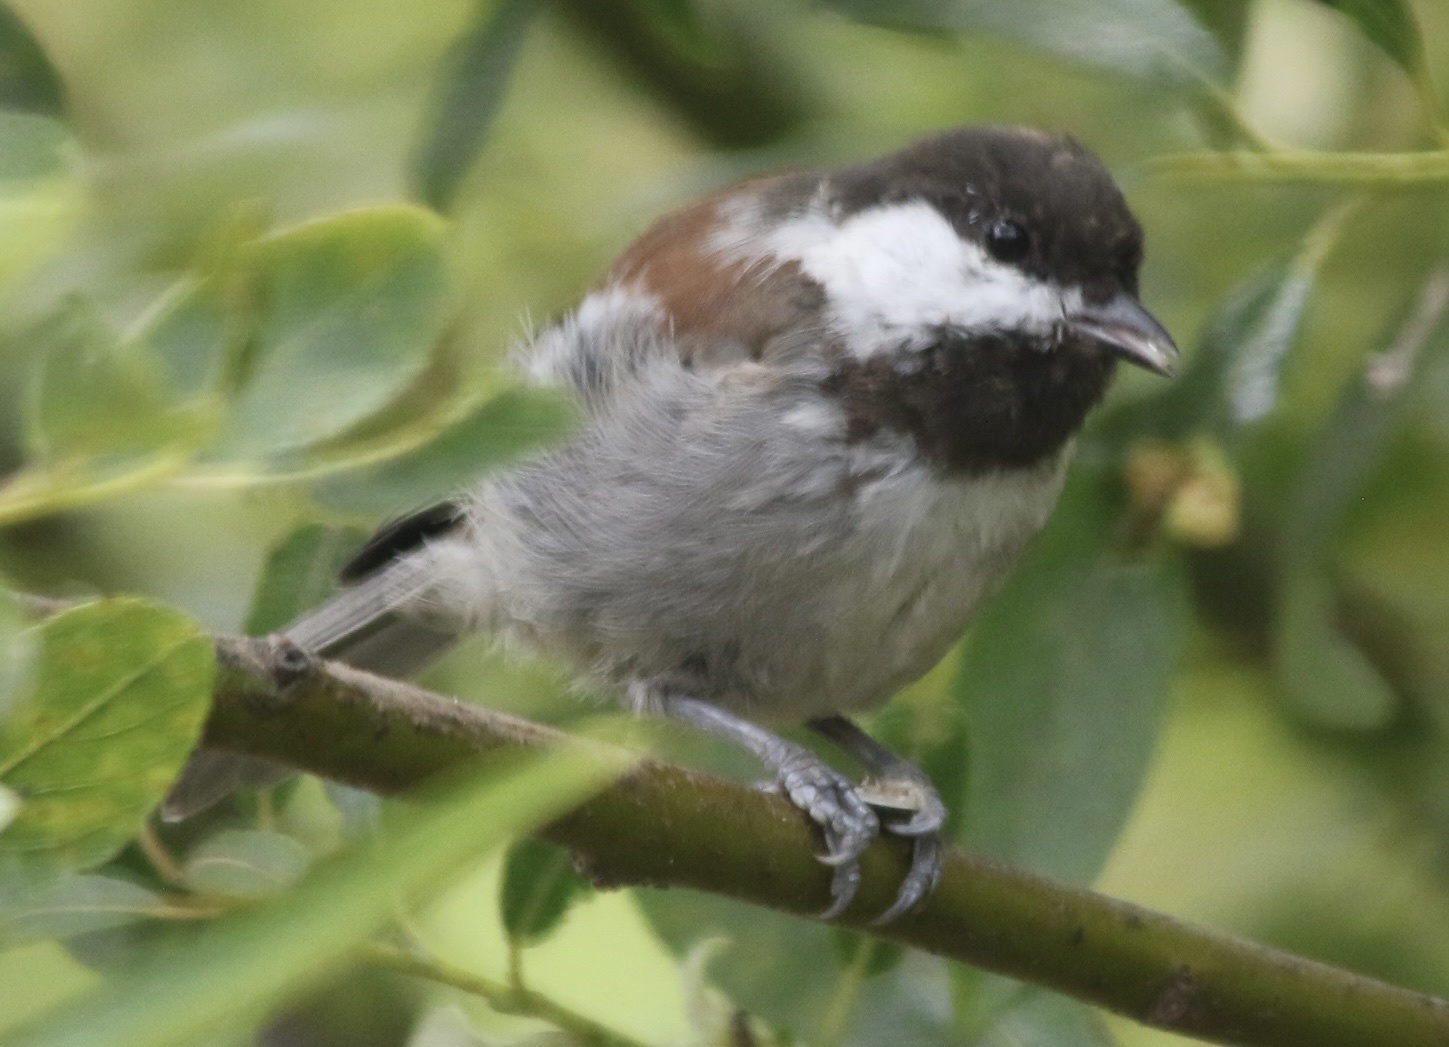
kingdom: Animalia
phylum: Chordata
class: Aves
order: Passeriformes
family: Paridae
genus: Poecile
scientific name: Poecile rufescens
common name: Chestnut-backed chickadee
